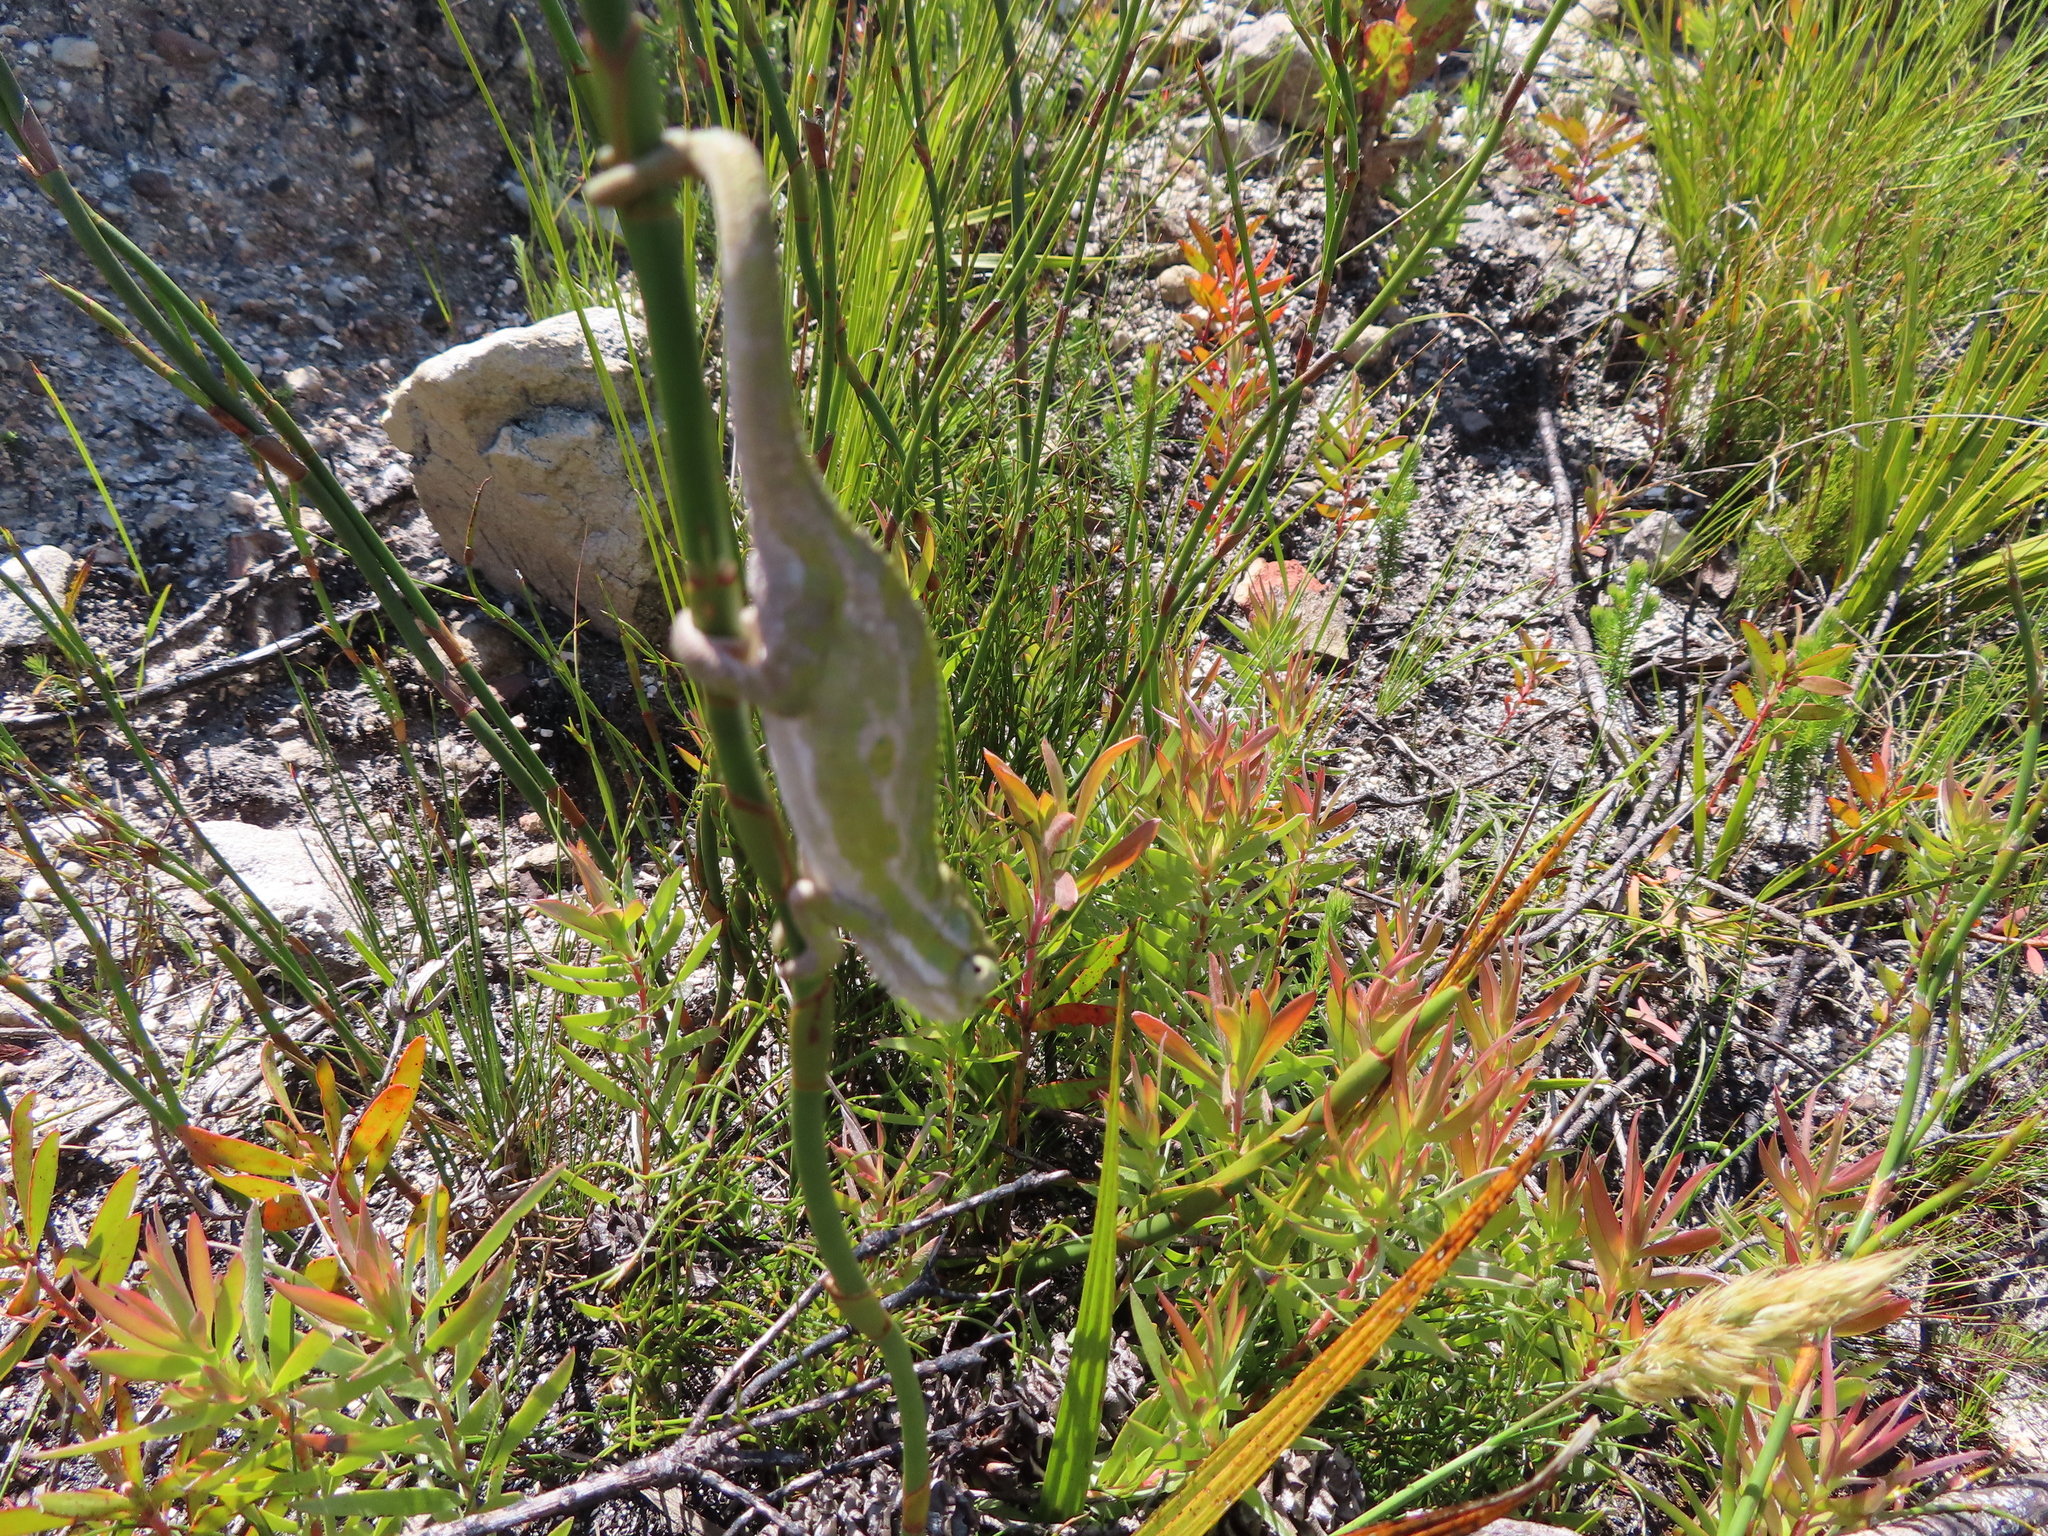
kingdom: Animalia
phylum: Chordata
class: Squamata
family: Chamaeleonidae
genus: Bradypodion
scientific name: Bradypodion pumilum
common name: Cape dwarf chameleon
